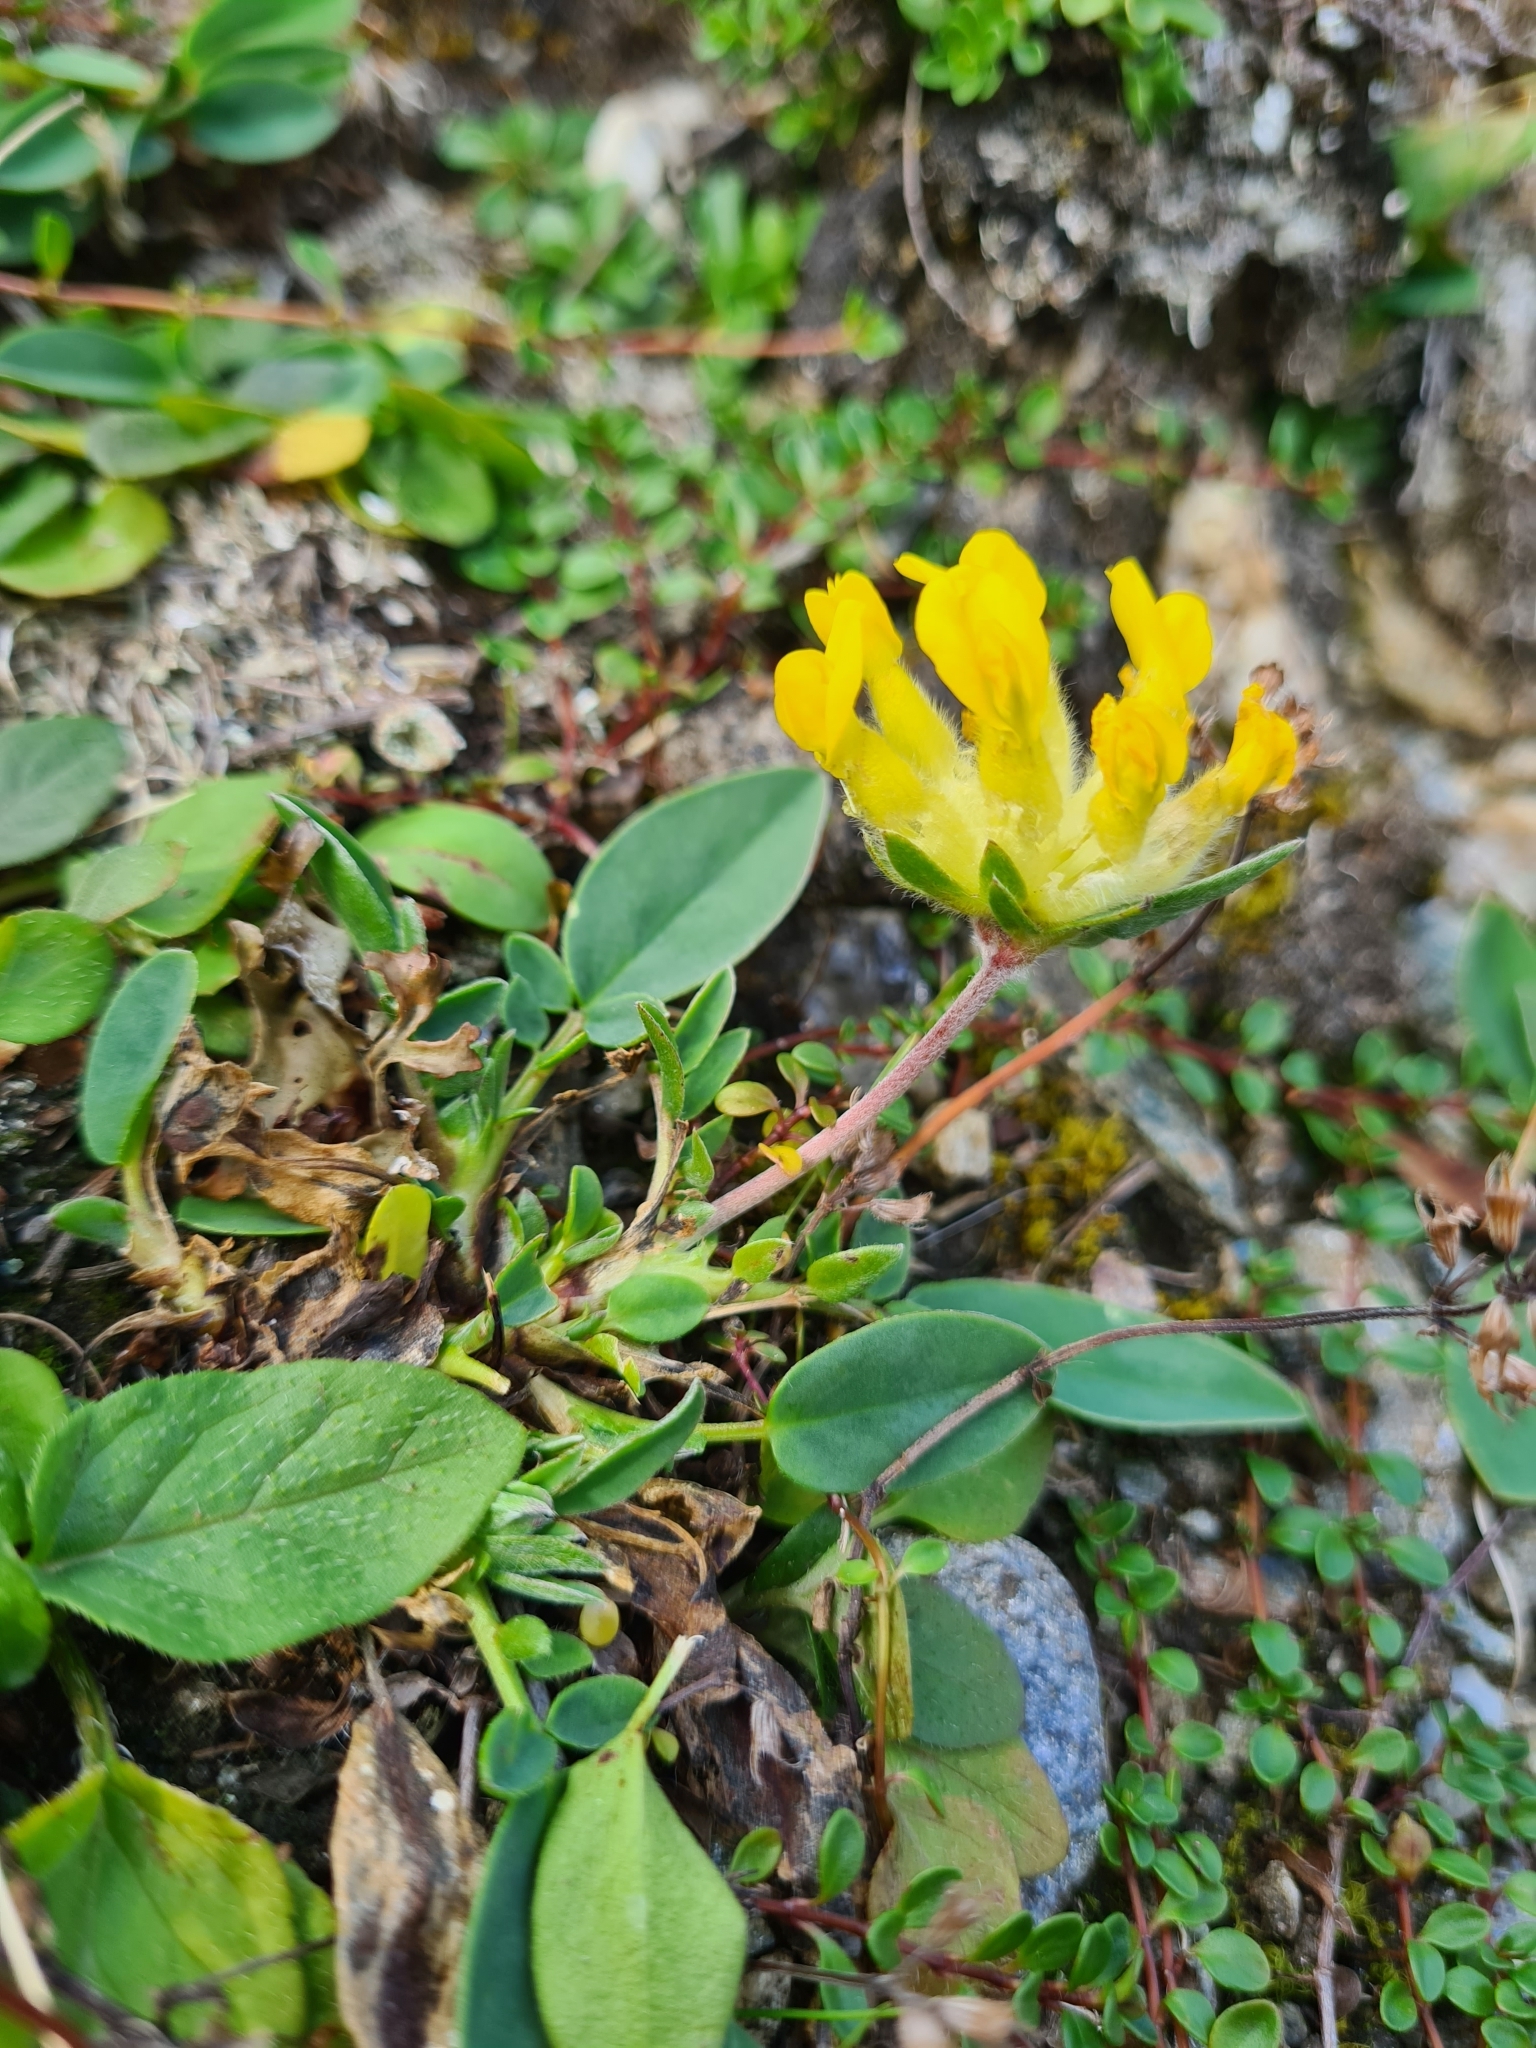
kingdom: Plantae
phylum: Tracheophyta
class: Magnoliopsida
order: Fabales
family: Fabaceae
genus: Anthyllis
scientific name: Anthyllis vulneraria
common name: Kidney vetch
